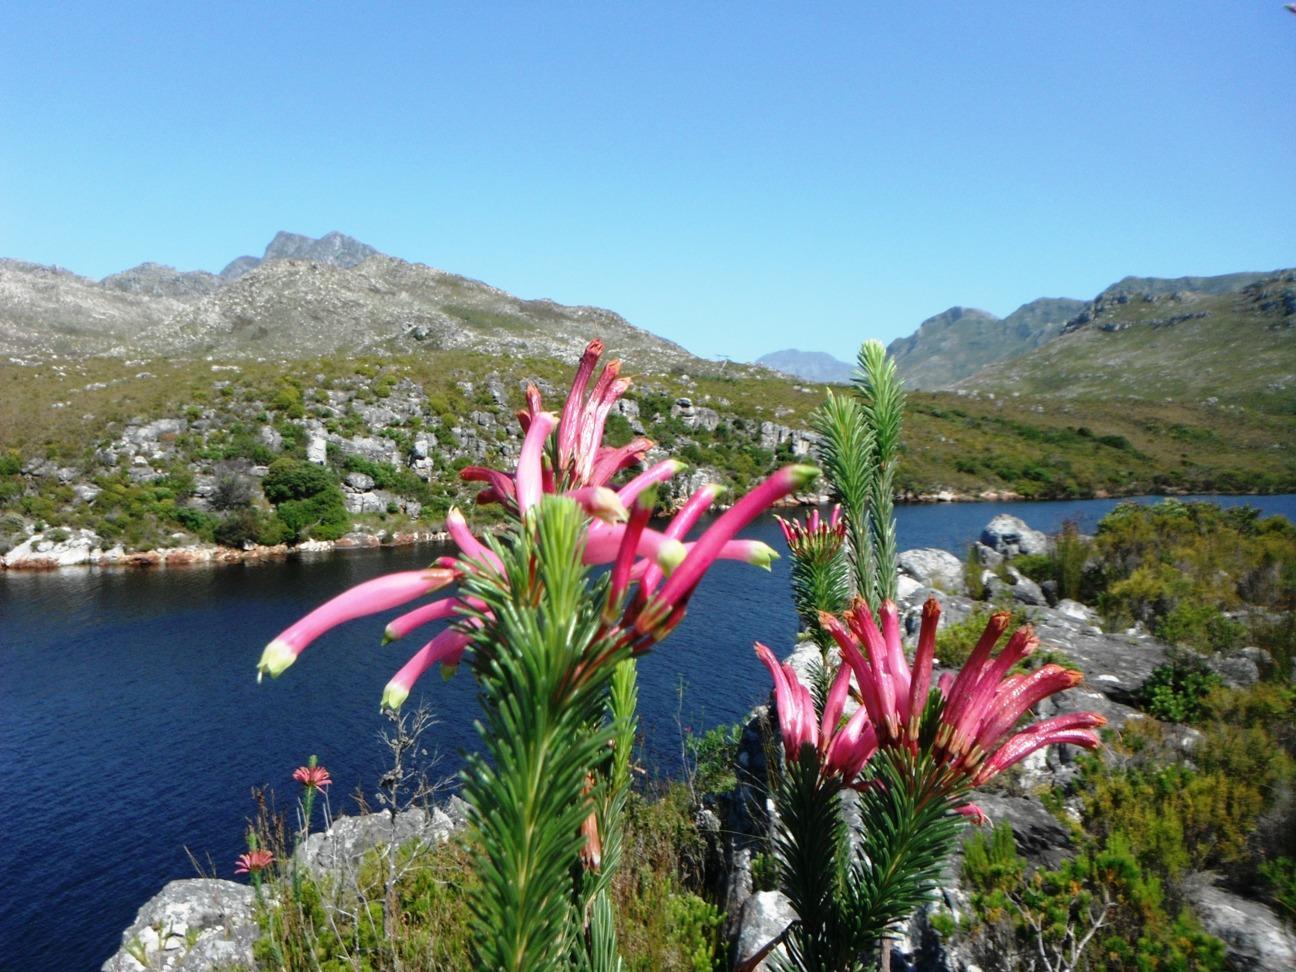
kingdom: Plantae
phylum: Tracheophyta
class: Magnoliopsida
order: Ericales
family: Ericaceae
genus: Erica
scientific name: Erica fascicularis
